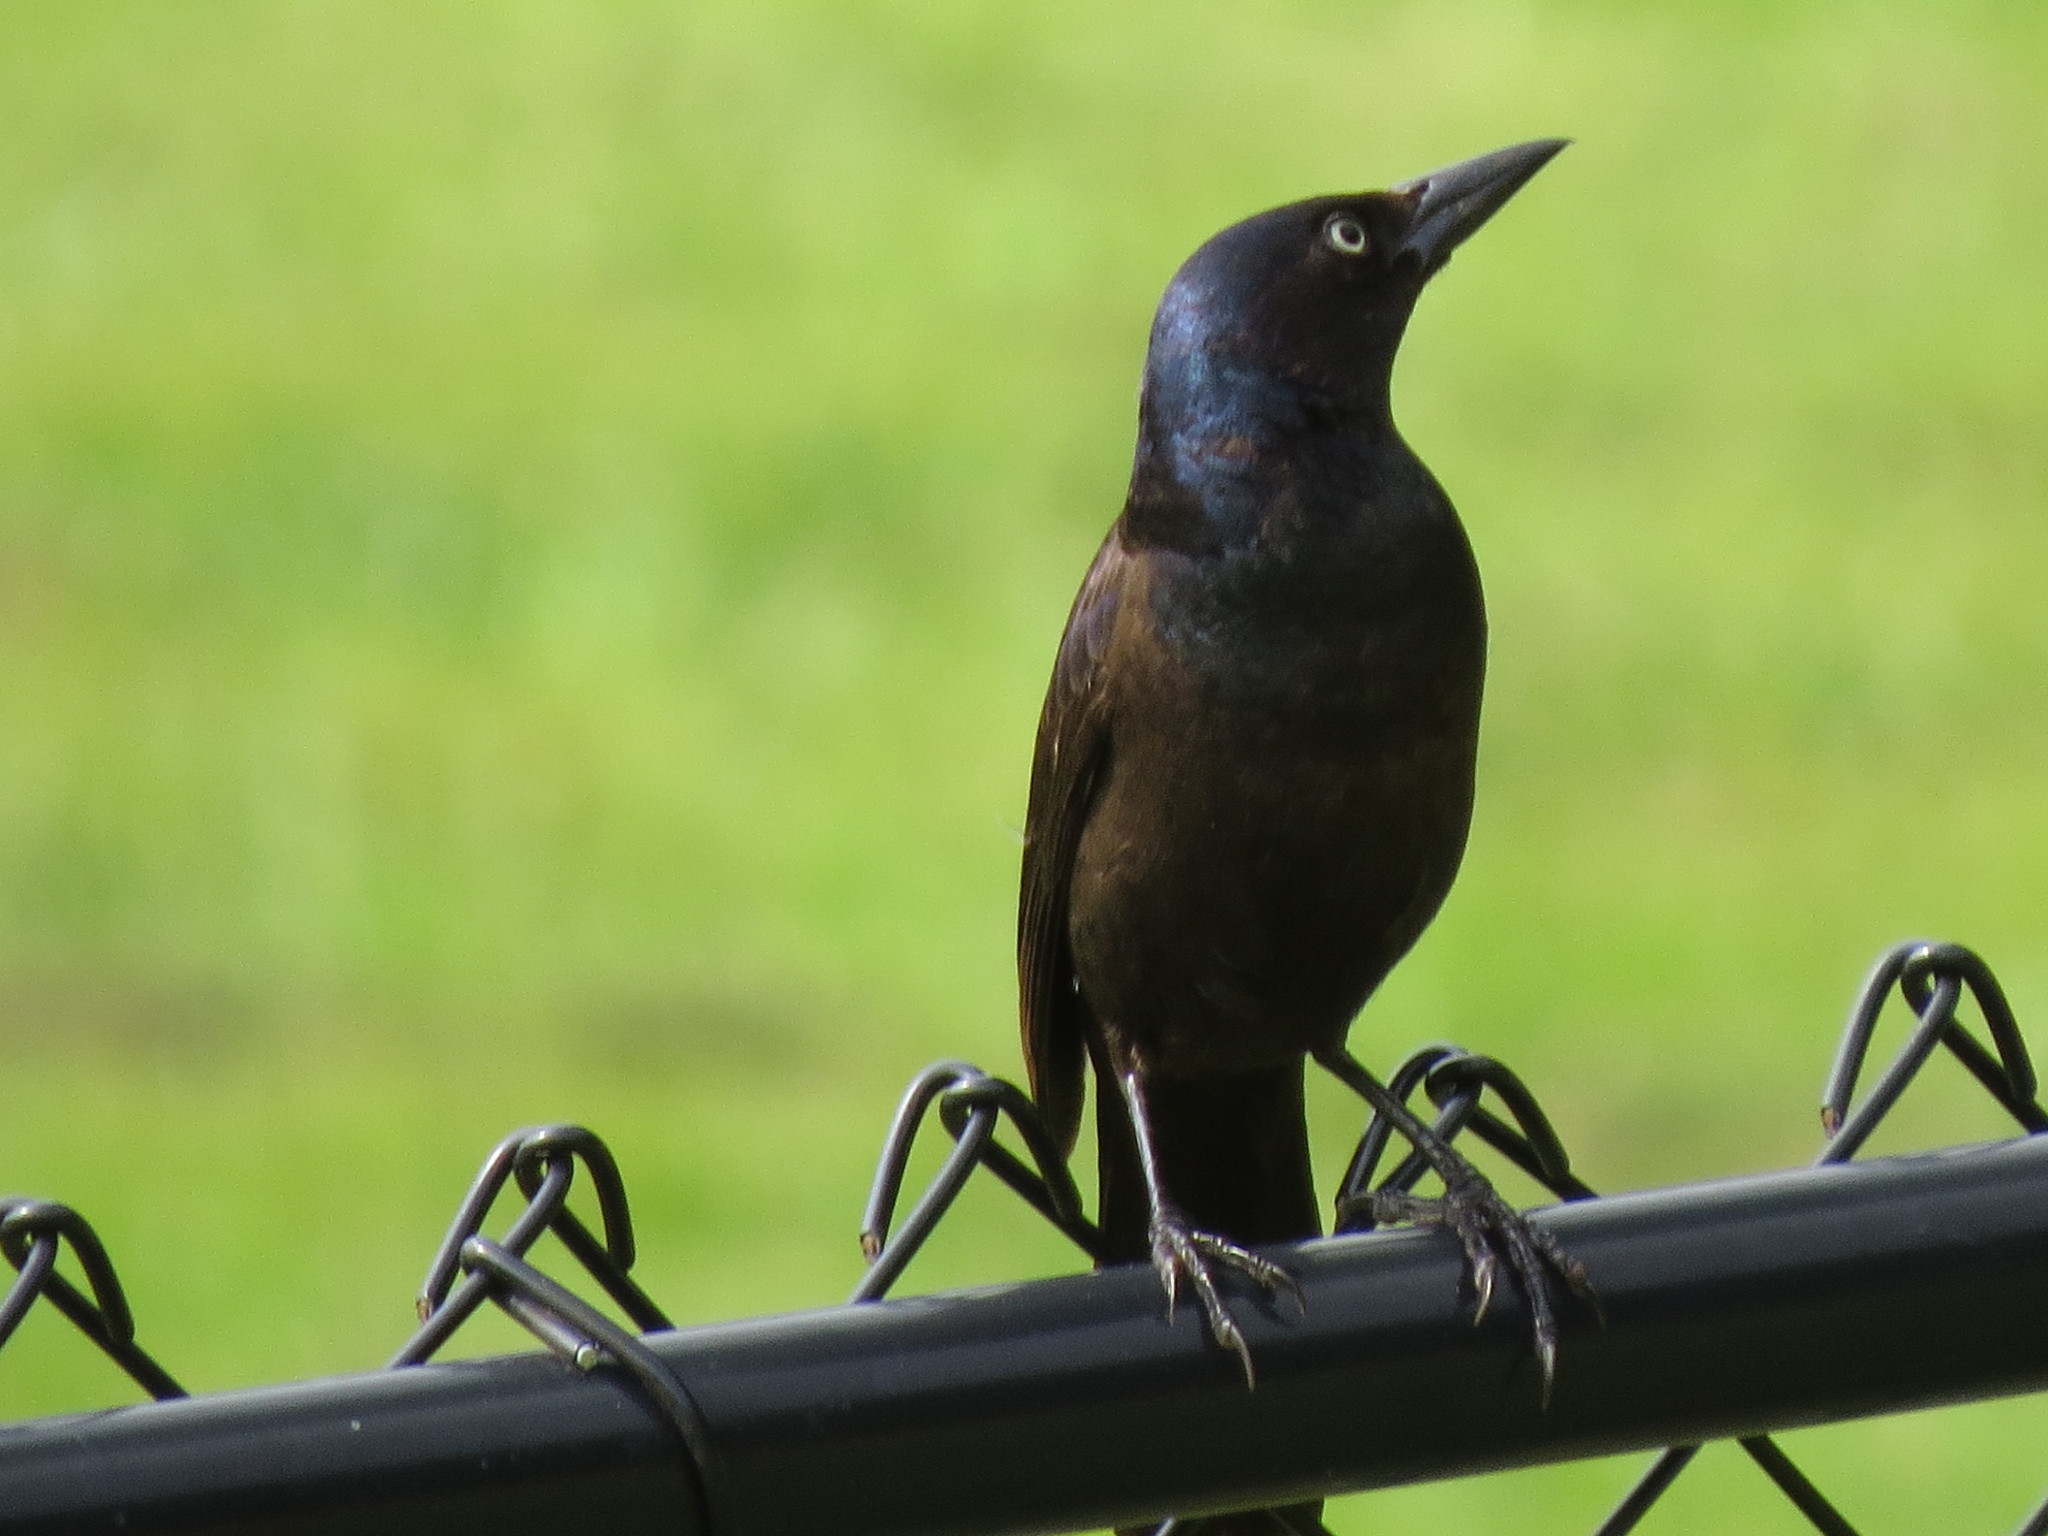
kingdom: Animalia
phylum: Chordata
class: Aves
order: Passeriformes
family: Icteridae
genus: Quiscalus
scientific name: Quiscalus quiscula
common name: Common grackle
